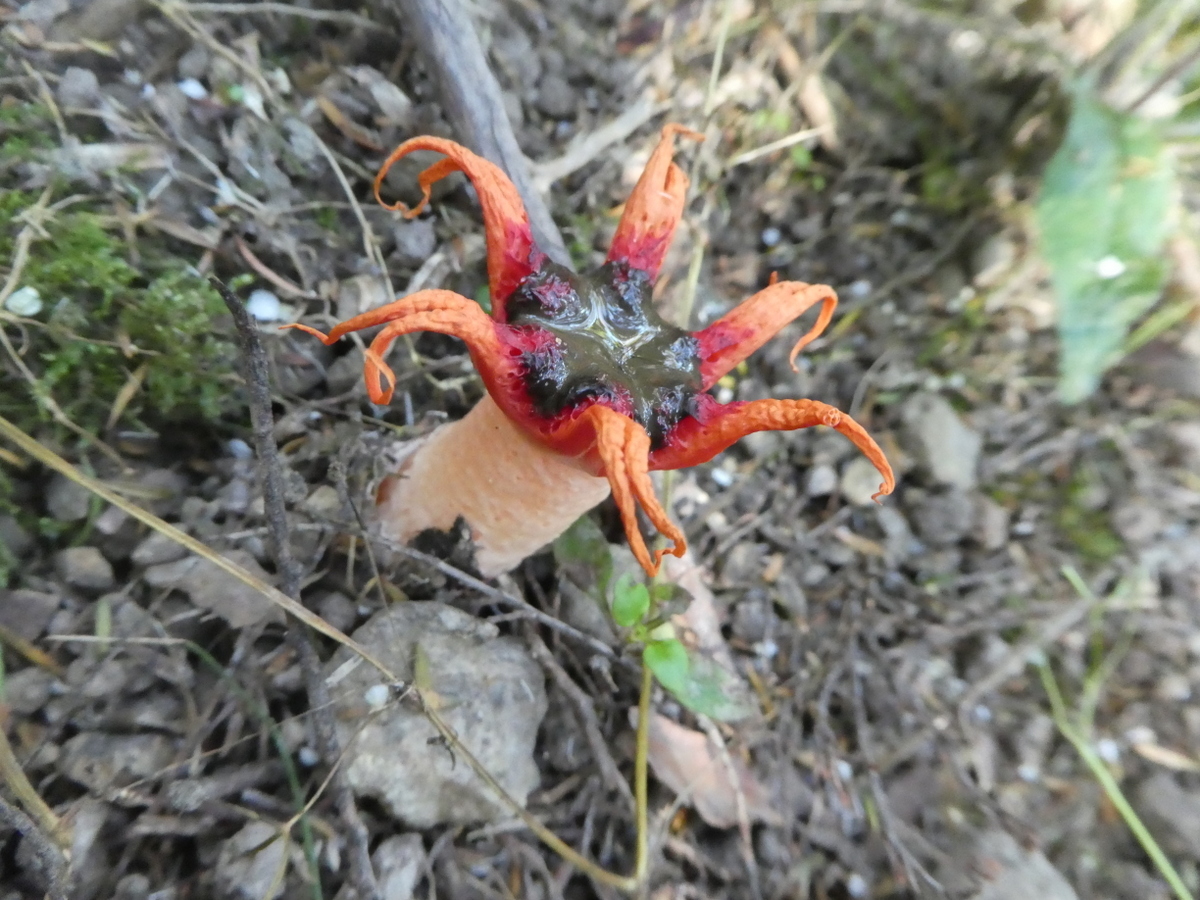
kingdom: Fungi
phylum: Basidiomycota
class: Agaricomycetes
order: Phallales
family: Phallaceae
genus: Aseroe
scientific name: Aseroe rubra
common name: Starfish fungus
